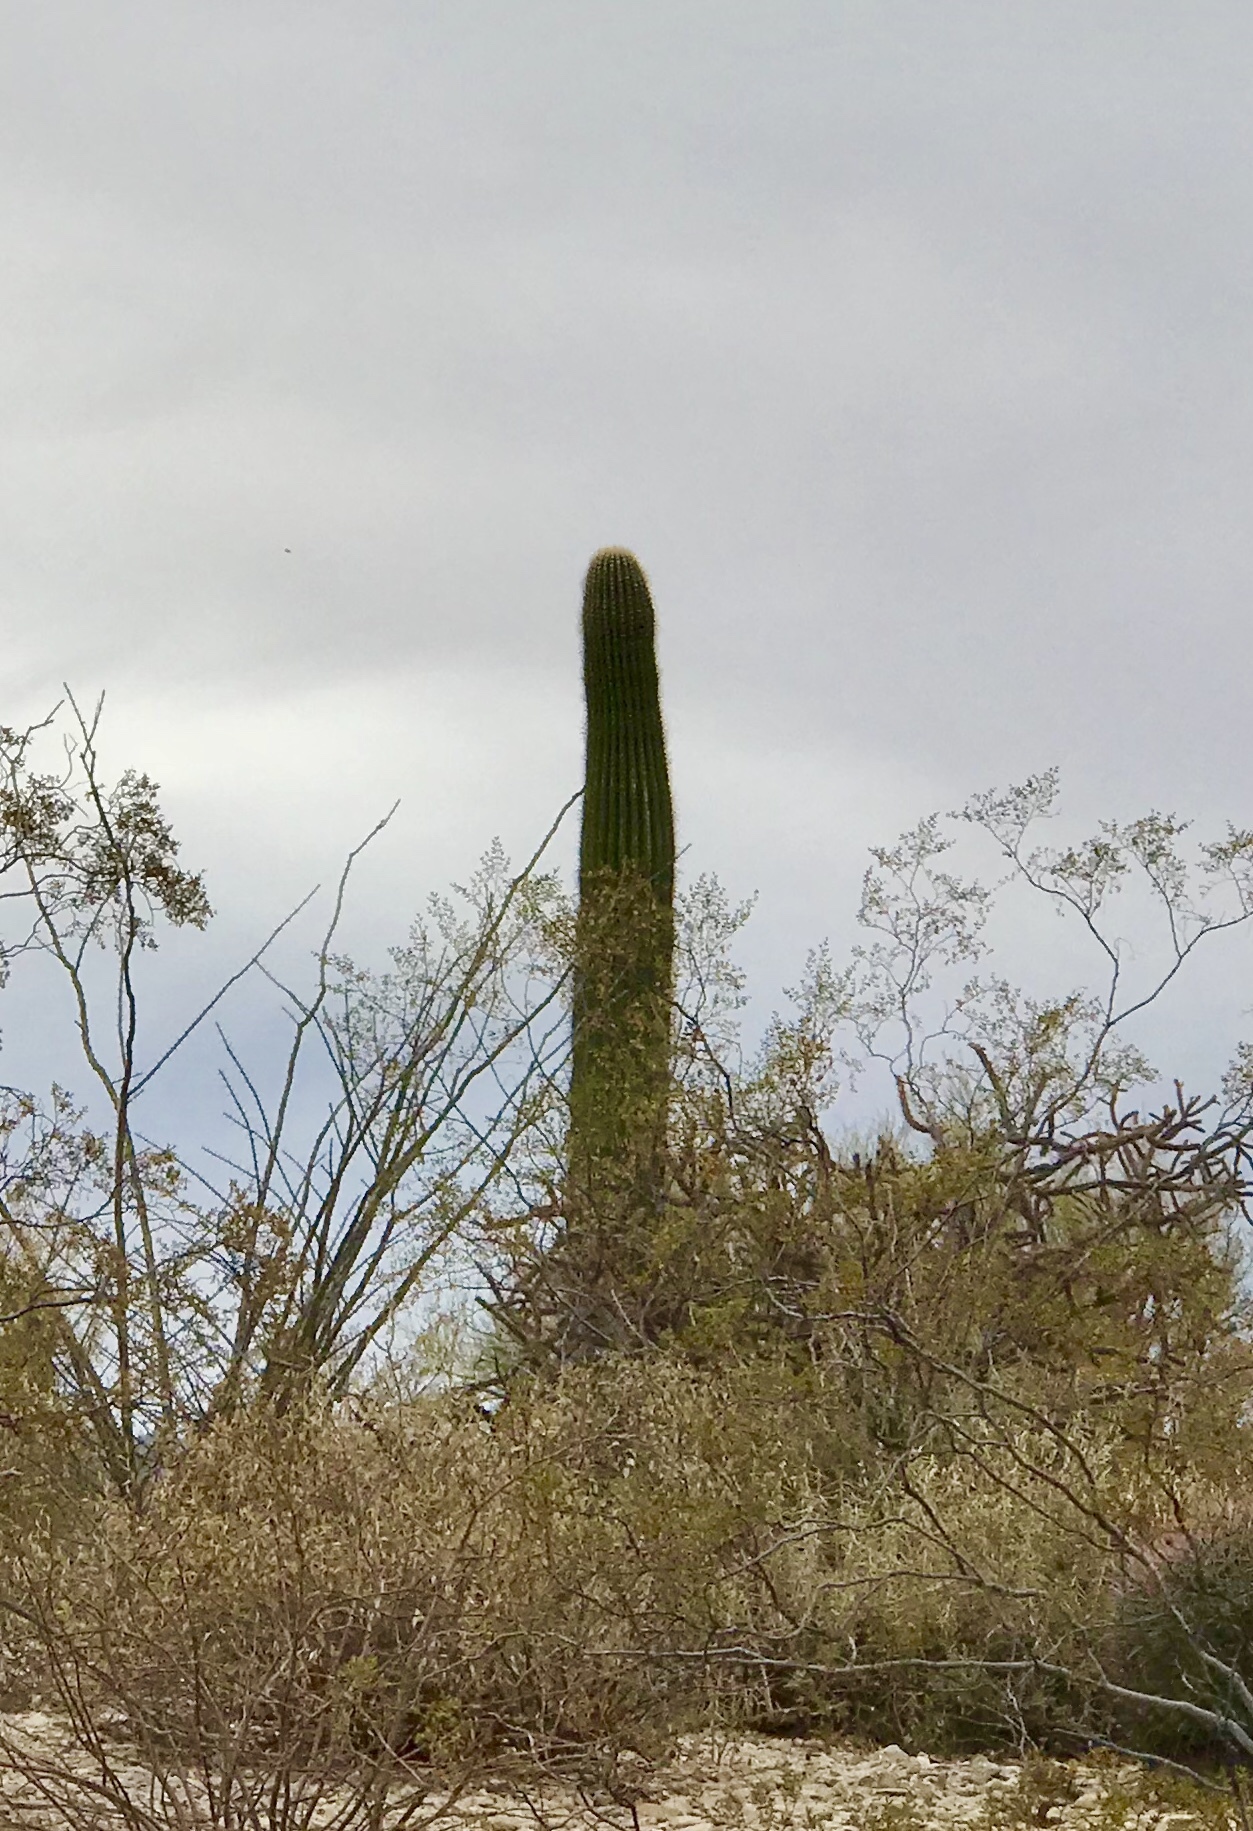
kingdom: Plantae
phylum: Tracheophyta
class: Magnoliopsida
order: Caryophyllales
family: Cactaceae
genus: Carnegiea
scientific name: Carnegiea gigantea
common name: Saguaro
